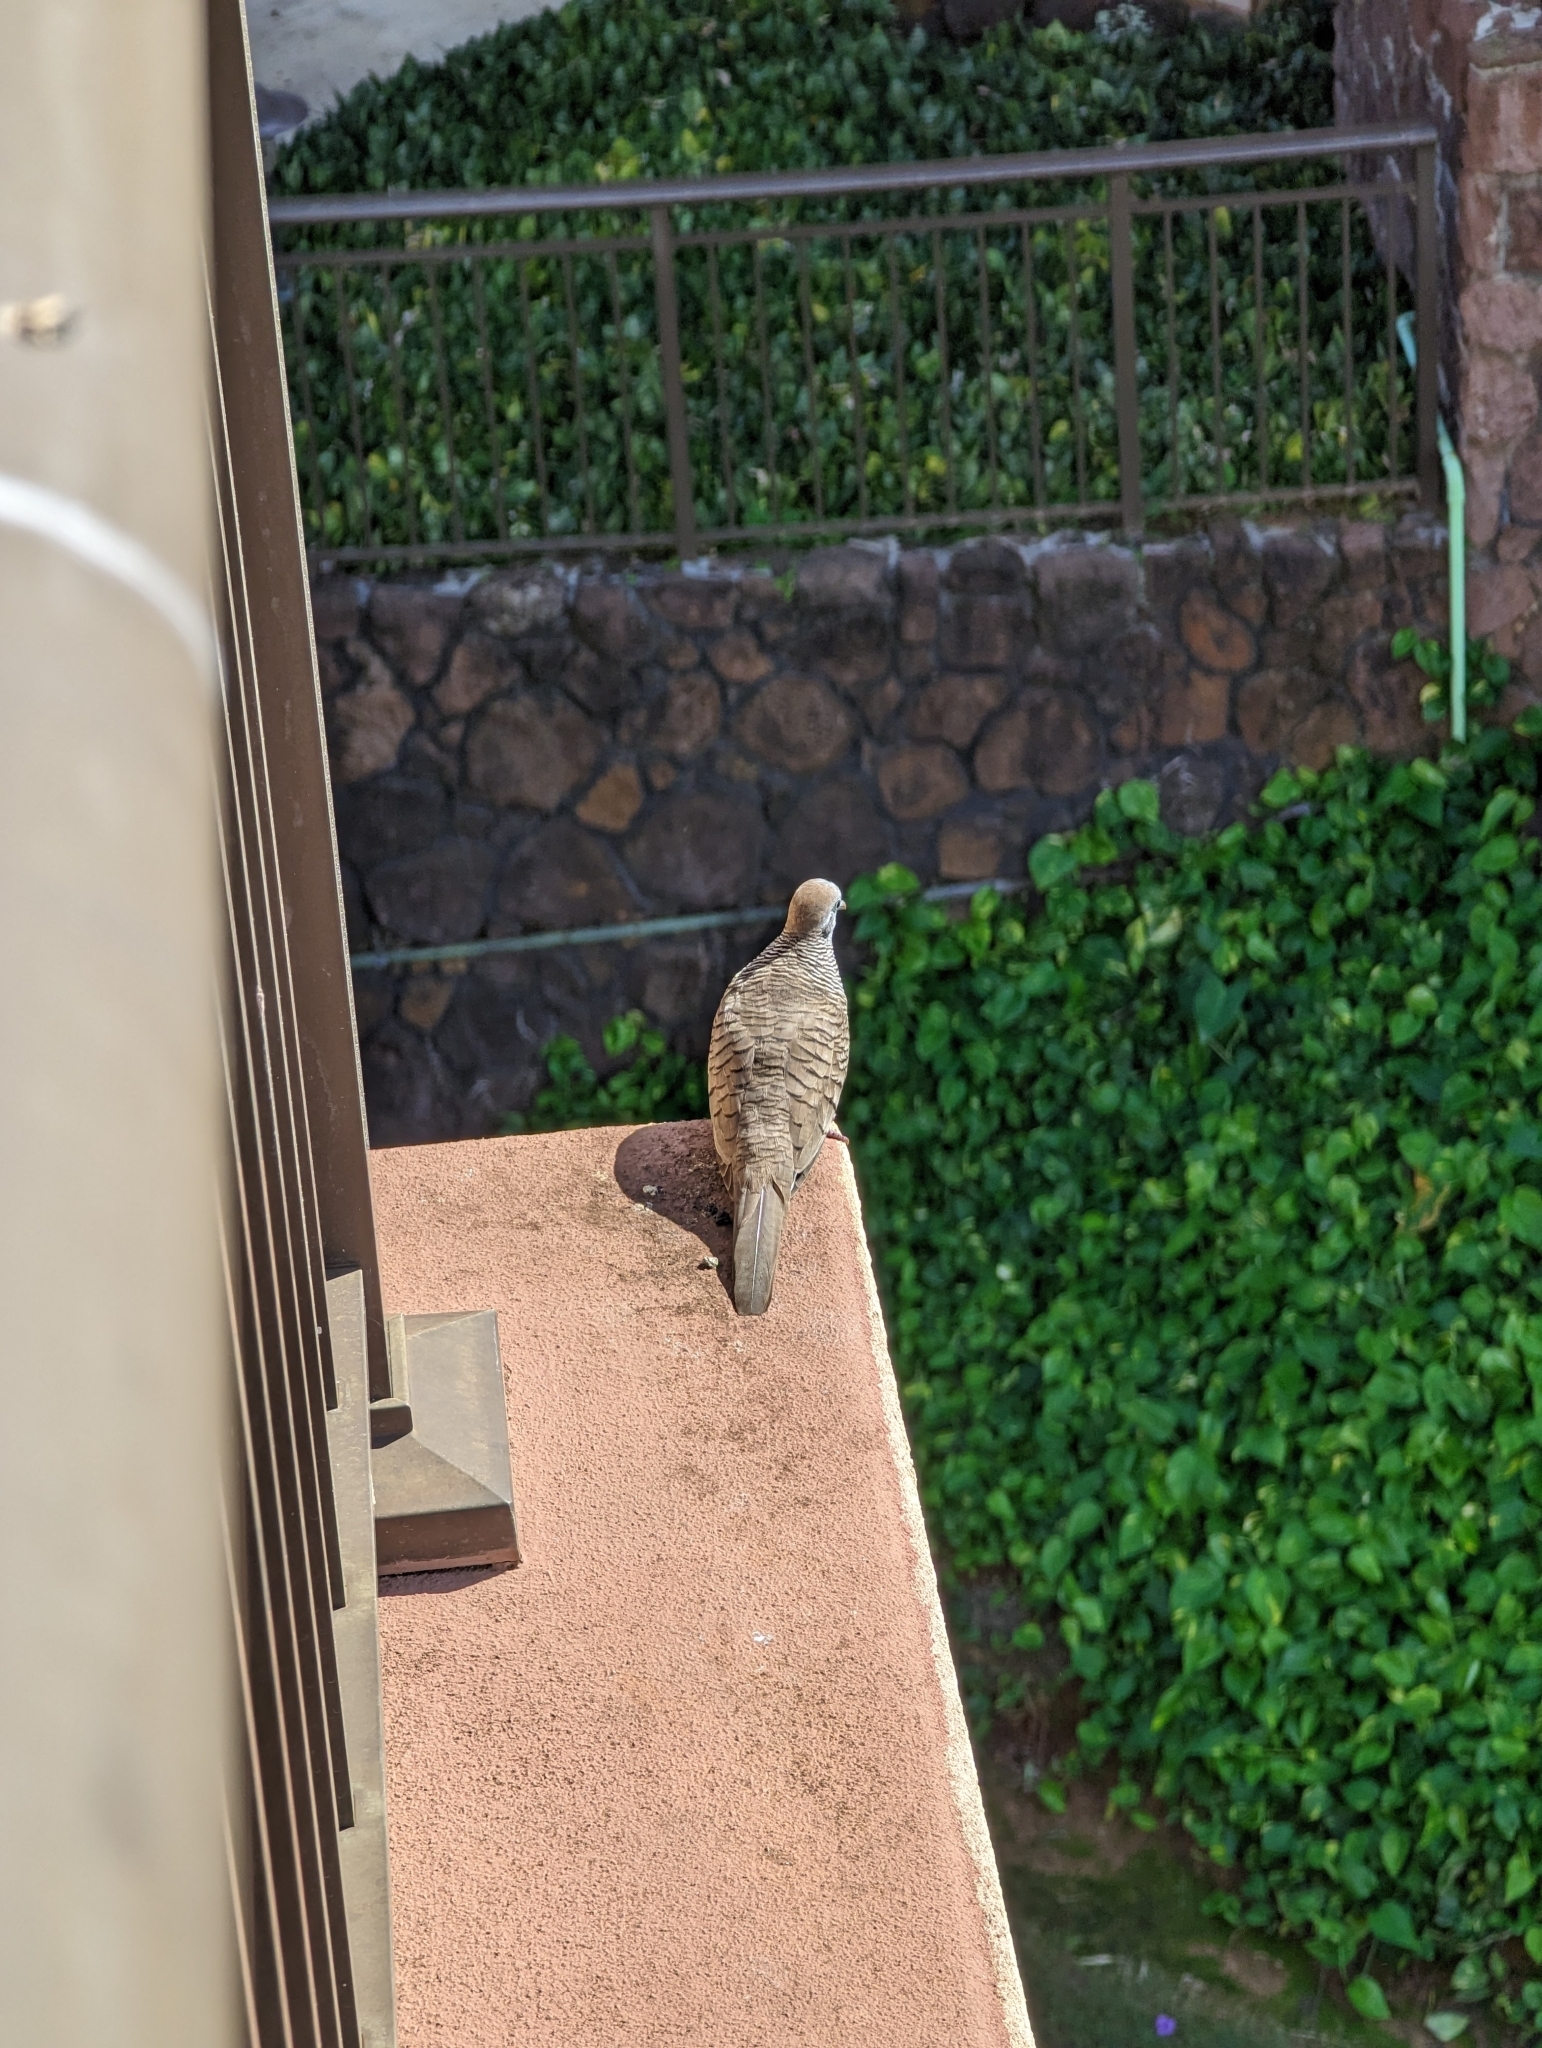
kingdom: Animalia
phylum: Chordata
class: Aves
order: Columbiformes
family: Columbidae
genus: Geopelia
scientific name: Geopelia striata
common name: Zebra dove
